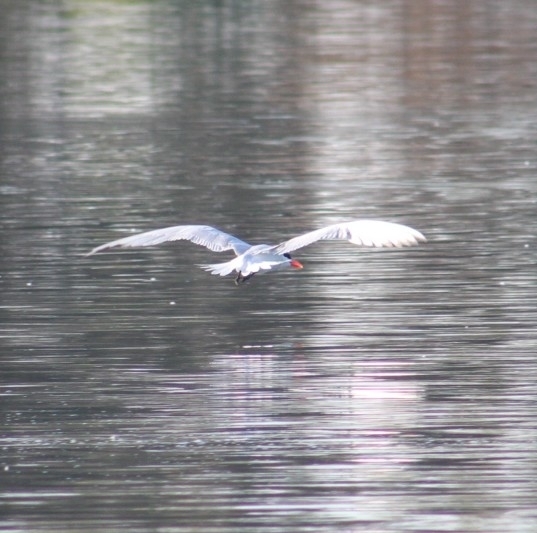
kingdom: Animalia
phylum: Chordata
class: Aves
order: Charadriiformes
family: Laridae
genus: Hydroprogne
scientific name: Hydroprogne caspia
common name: Caspian tern
